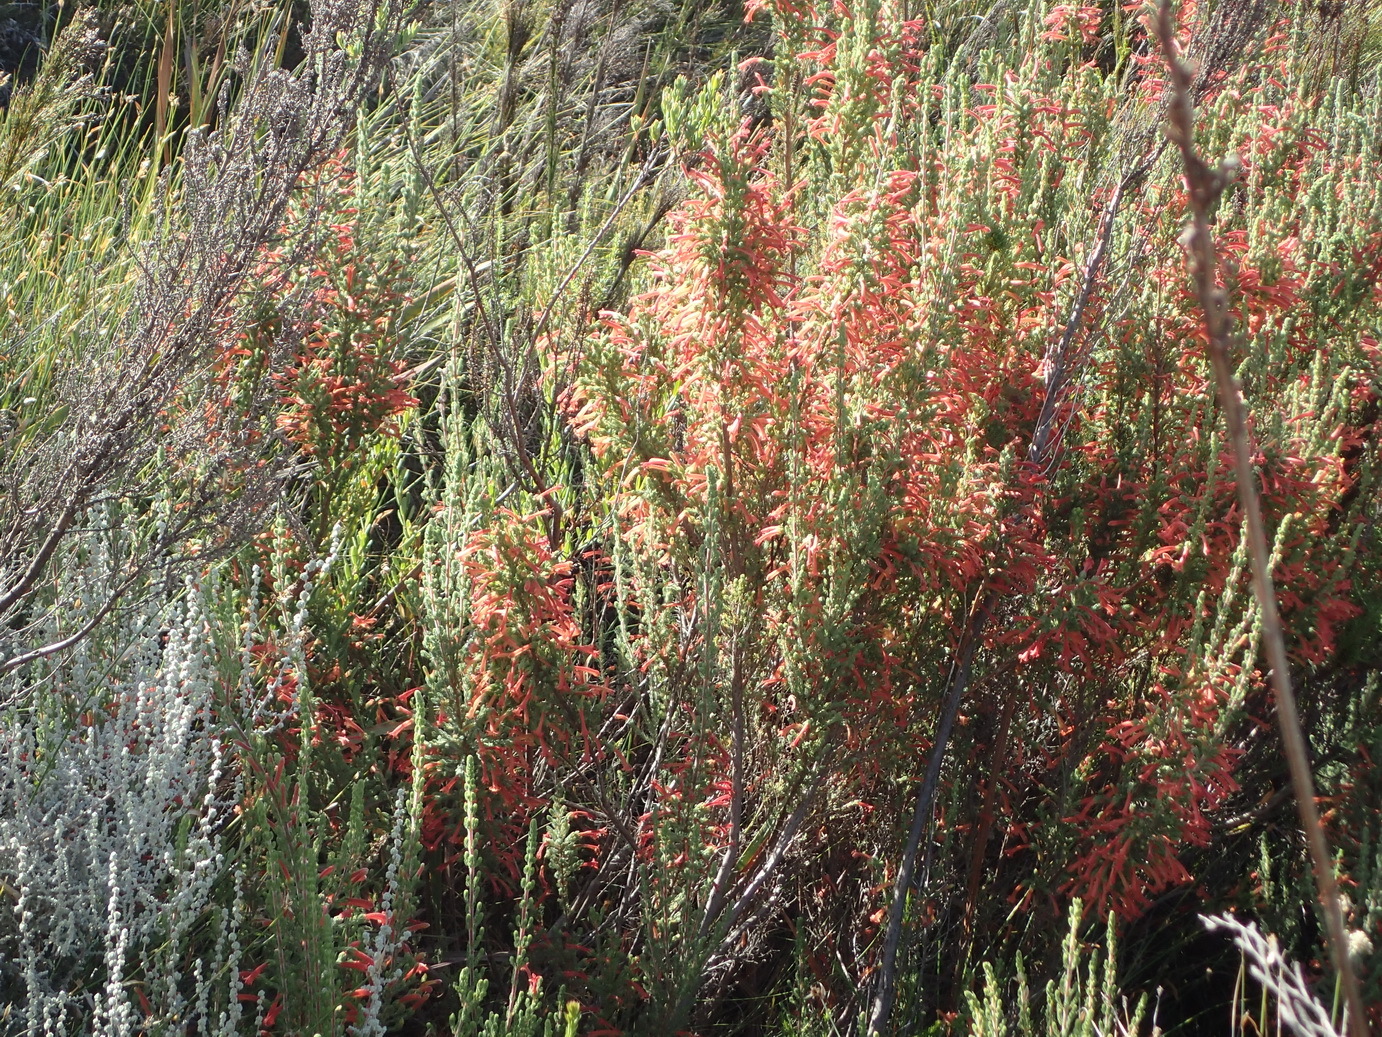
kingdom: Plantae
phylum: Tracheophyta
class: Magnoliopsida
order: Ericales
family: Ericaceae
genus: Erica
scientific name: Erica curviflora
